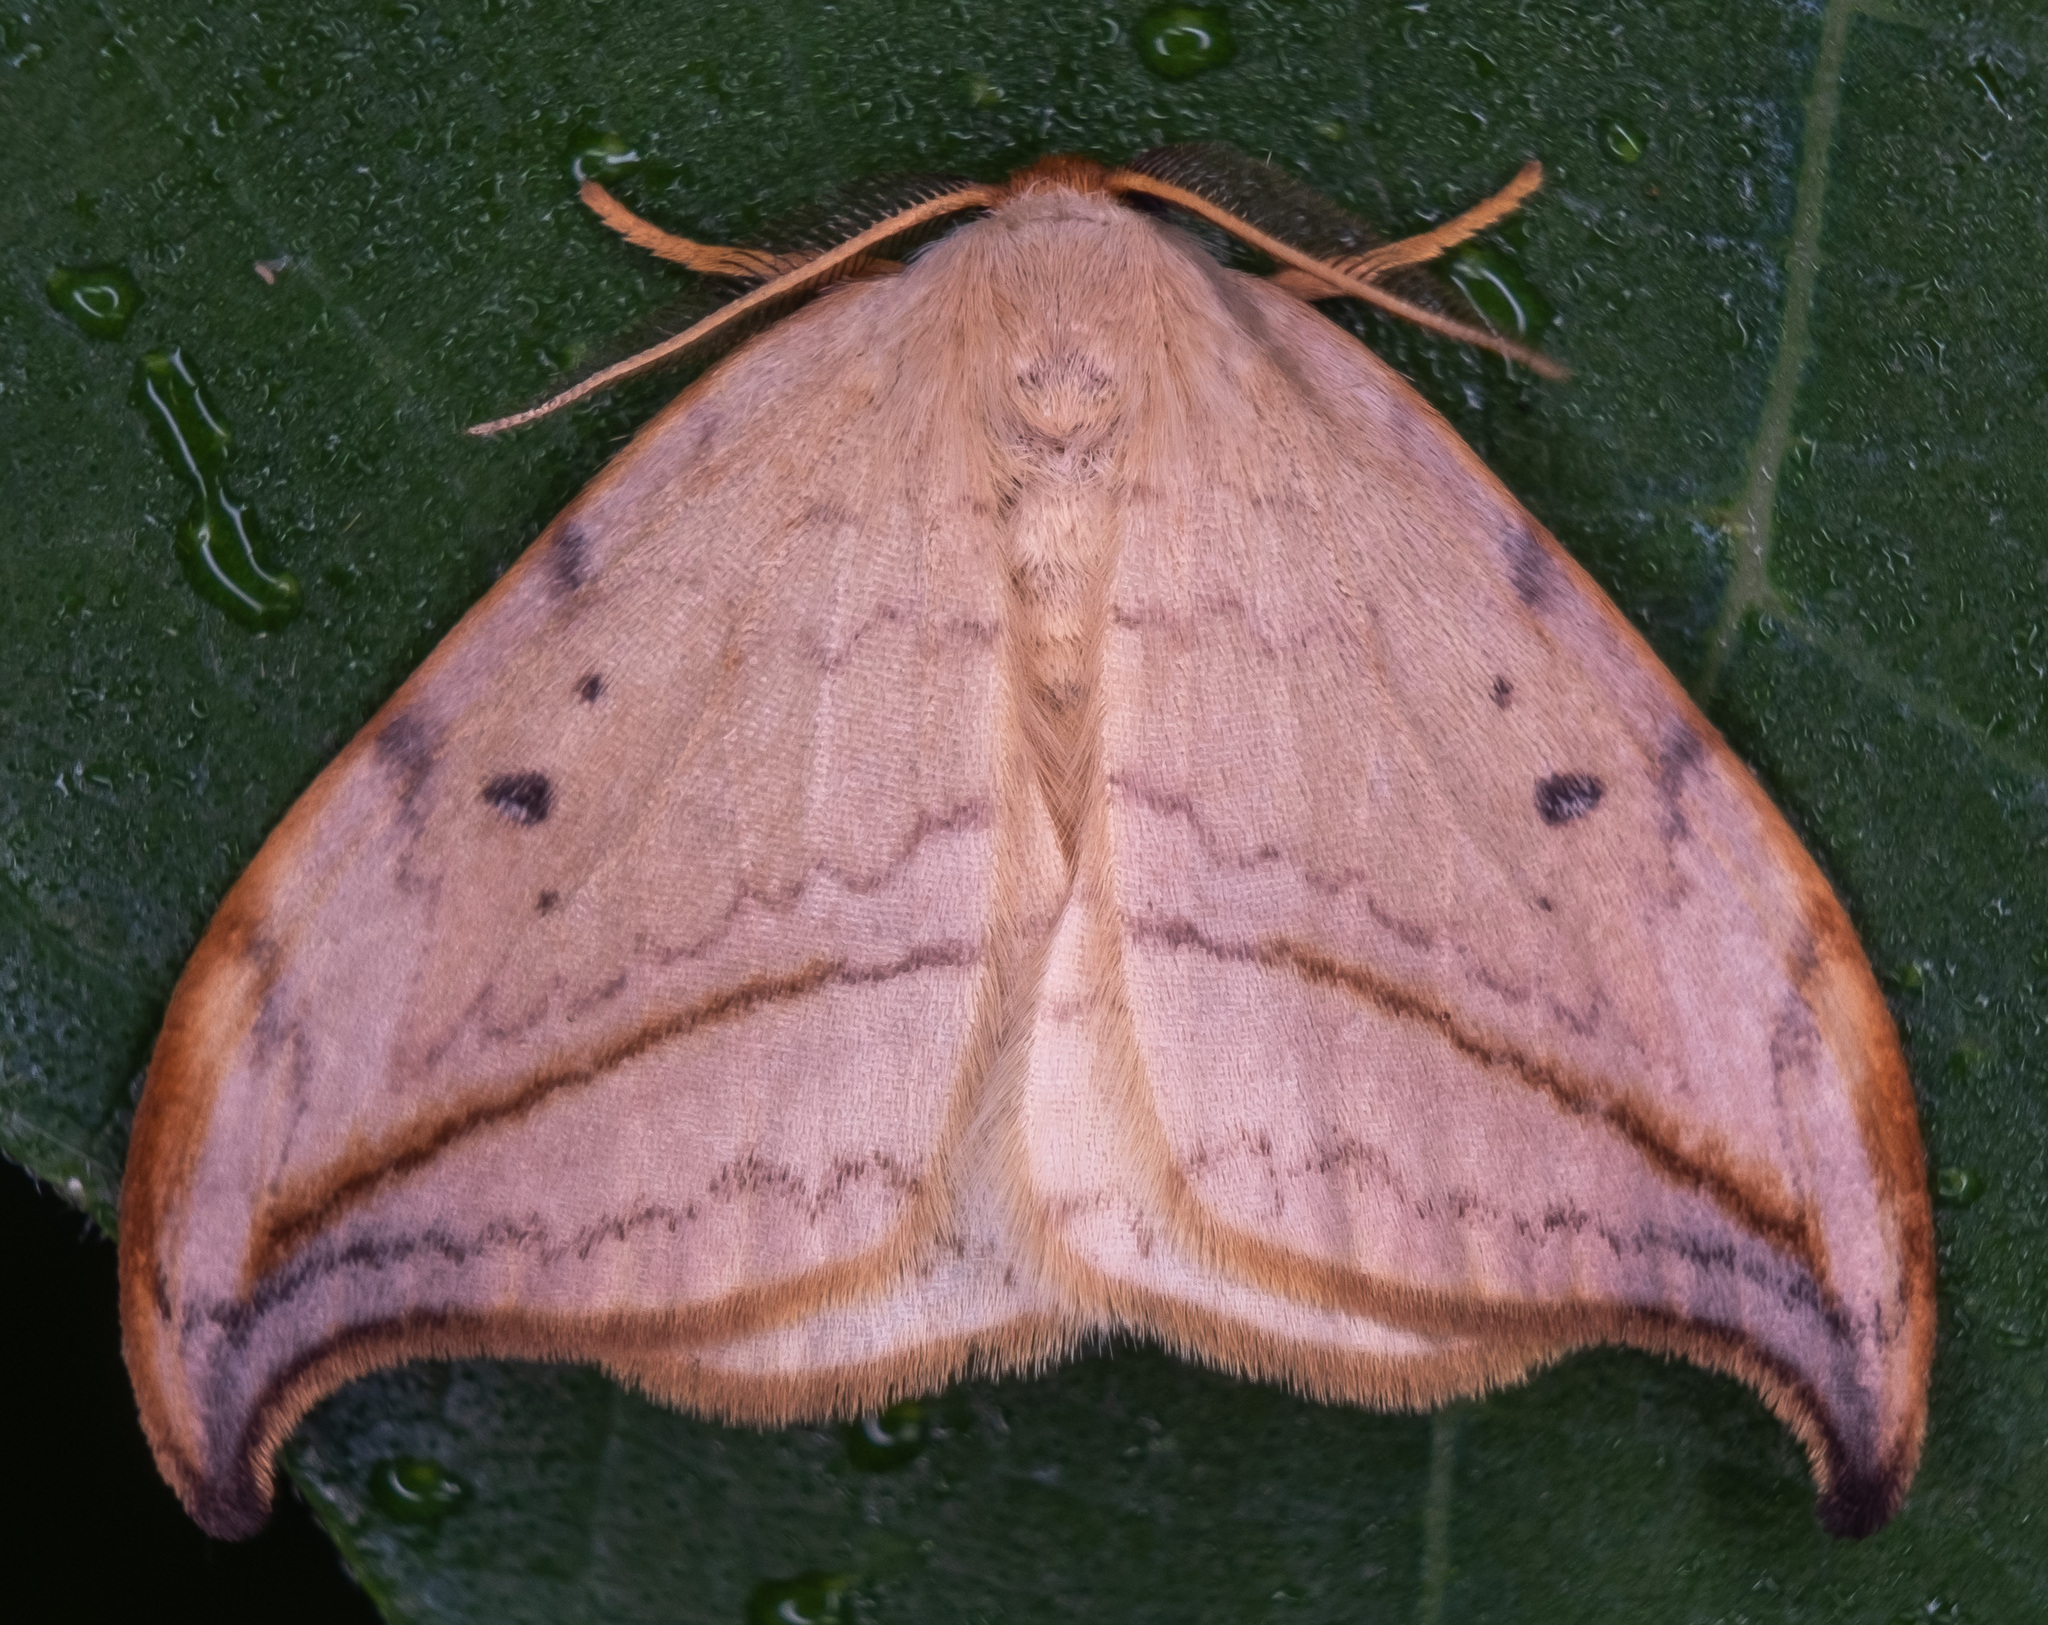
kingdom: Animalia
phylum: Arthropoda
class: Insecta
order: Lepidoptera
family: Drepanidae
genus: Drepana
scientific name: Drepana arcuata
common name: Arched hooktip moth
